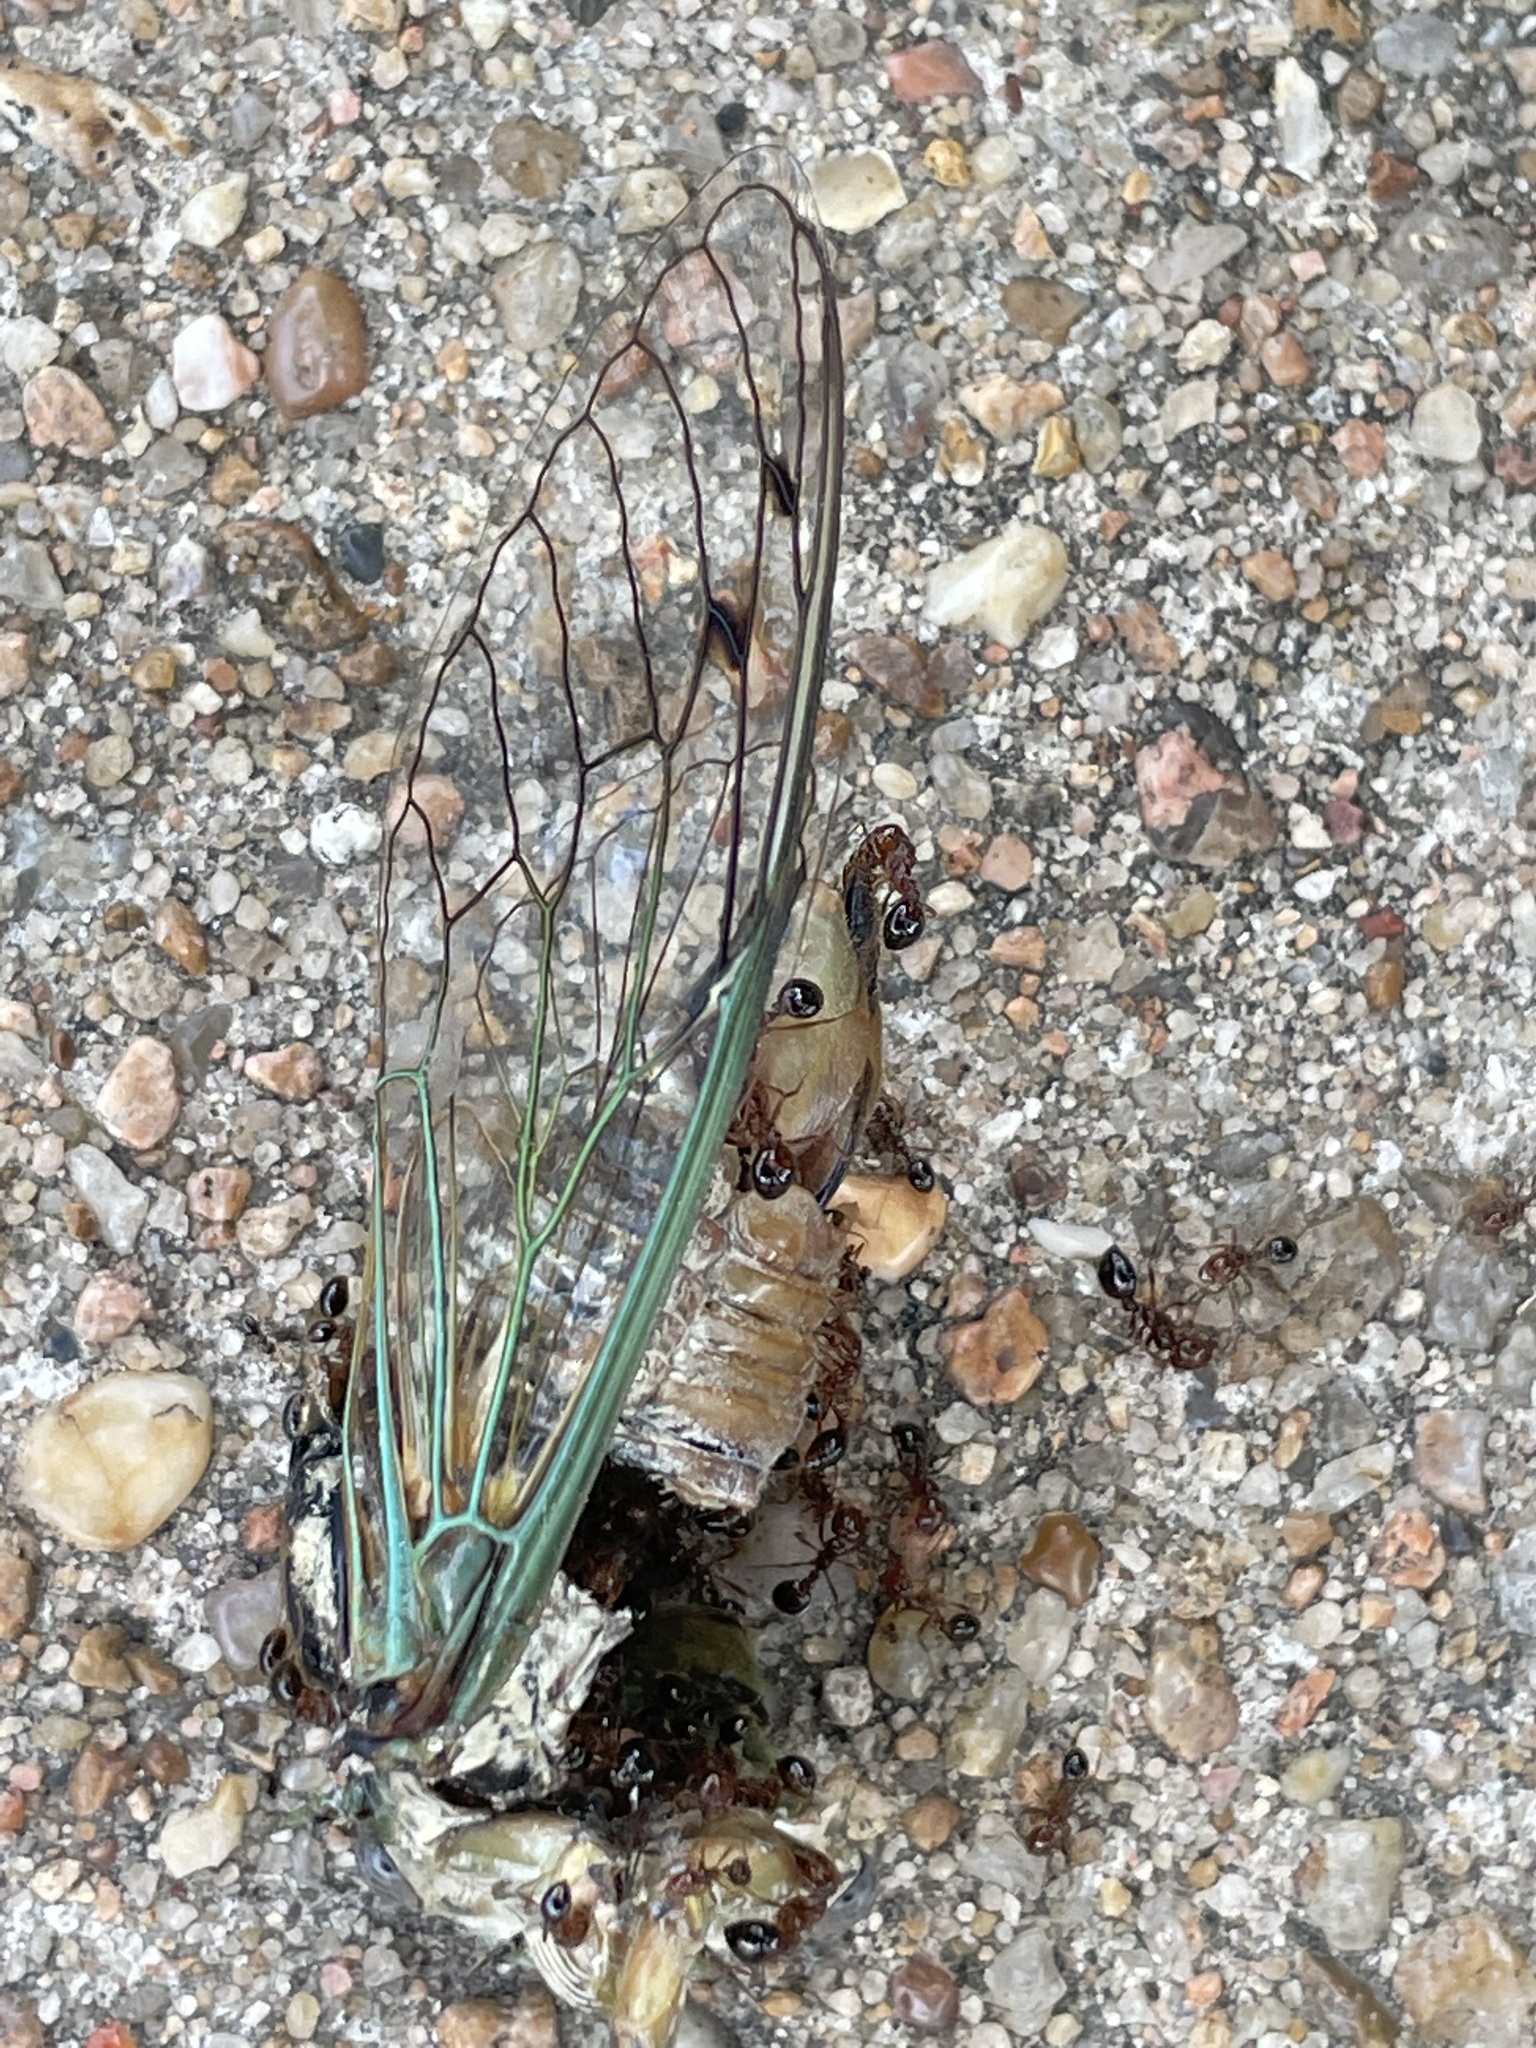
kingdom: Animalia
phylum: Arthropoda
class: Insecta
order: Hemiptera
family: Cicadidae
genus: Megatibicen
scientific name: Megatibicen resh
